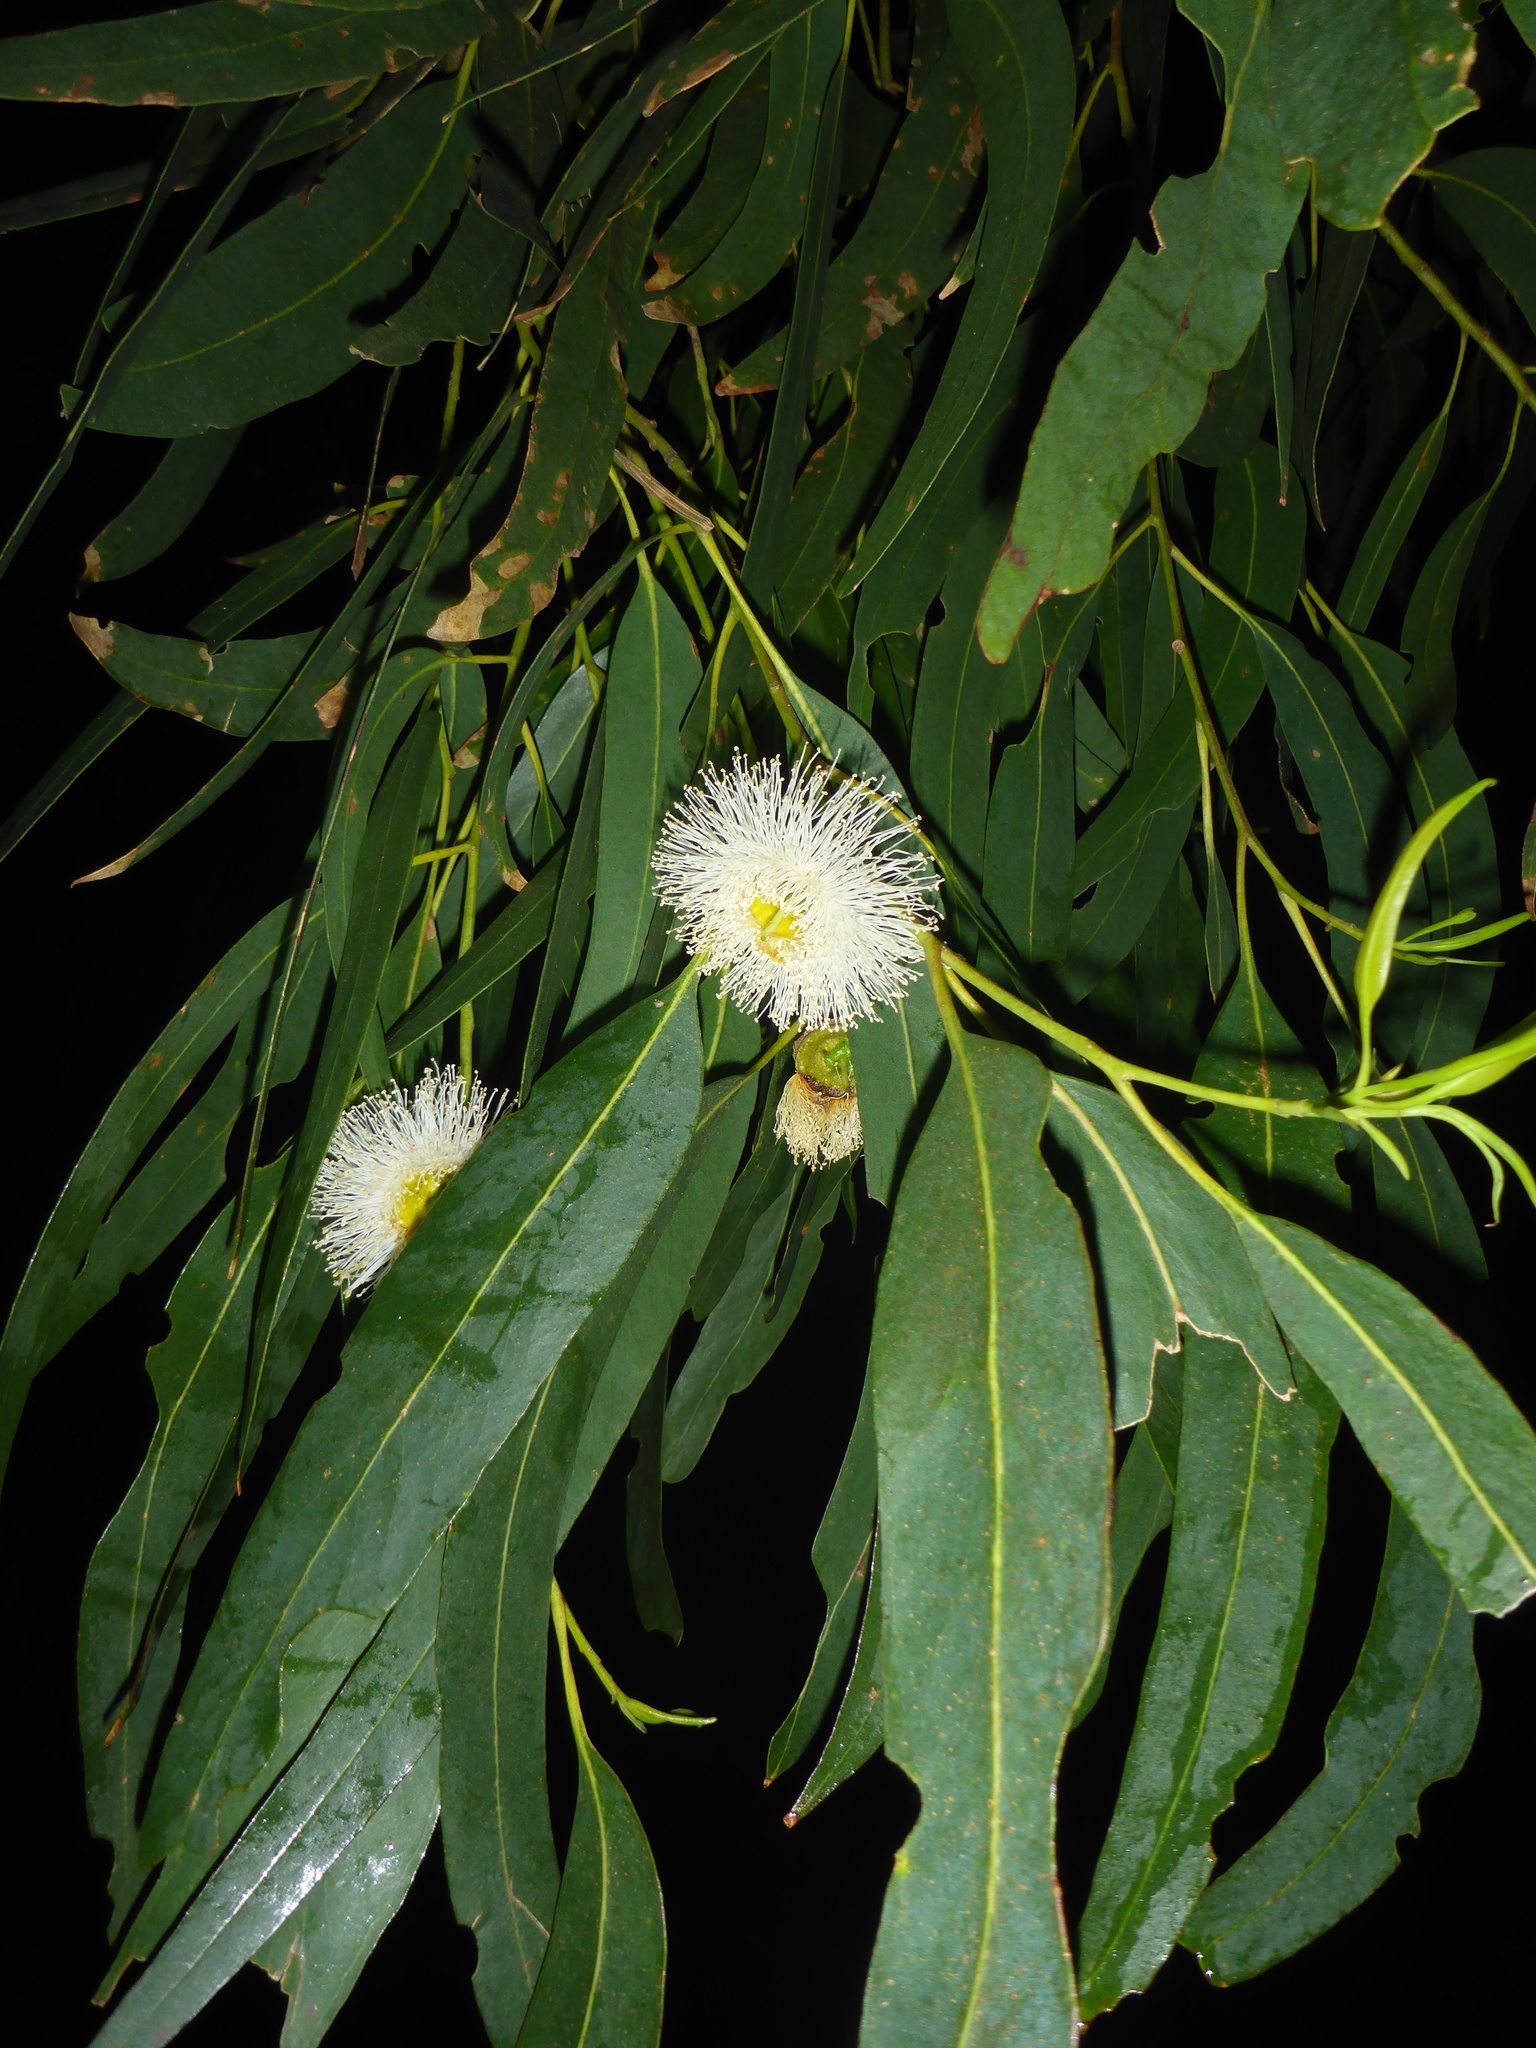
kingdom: Plantae
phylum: Tracheophyta
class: Magnoliopsida
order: Myrtales
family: Myrtaceae
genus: Eucalyptus
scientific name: Eucalyptus globulus
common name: Southern blue-gum
